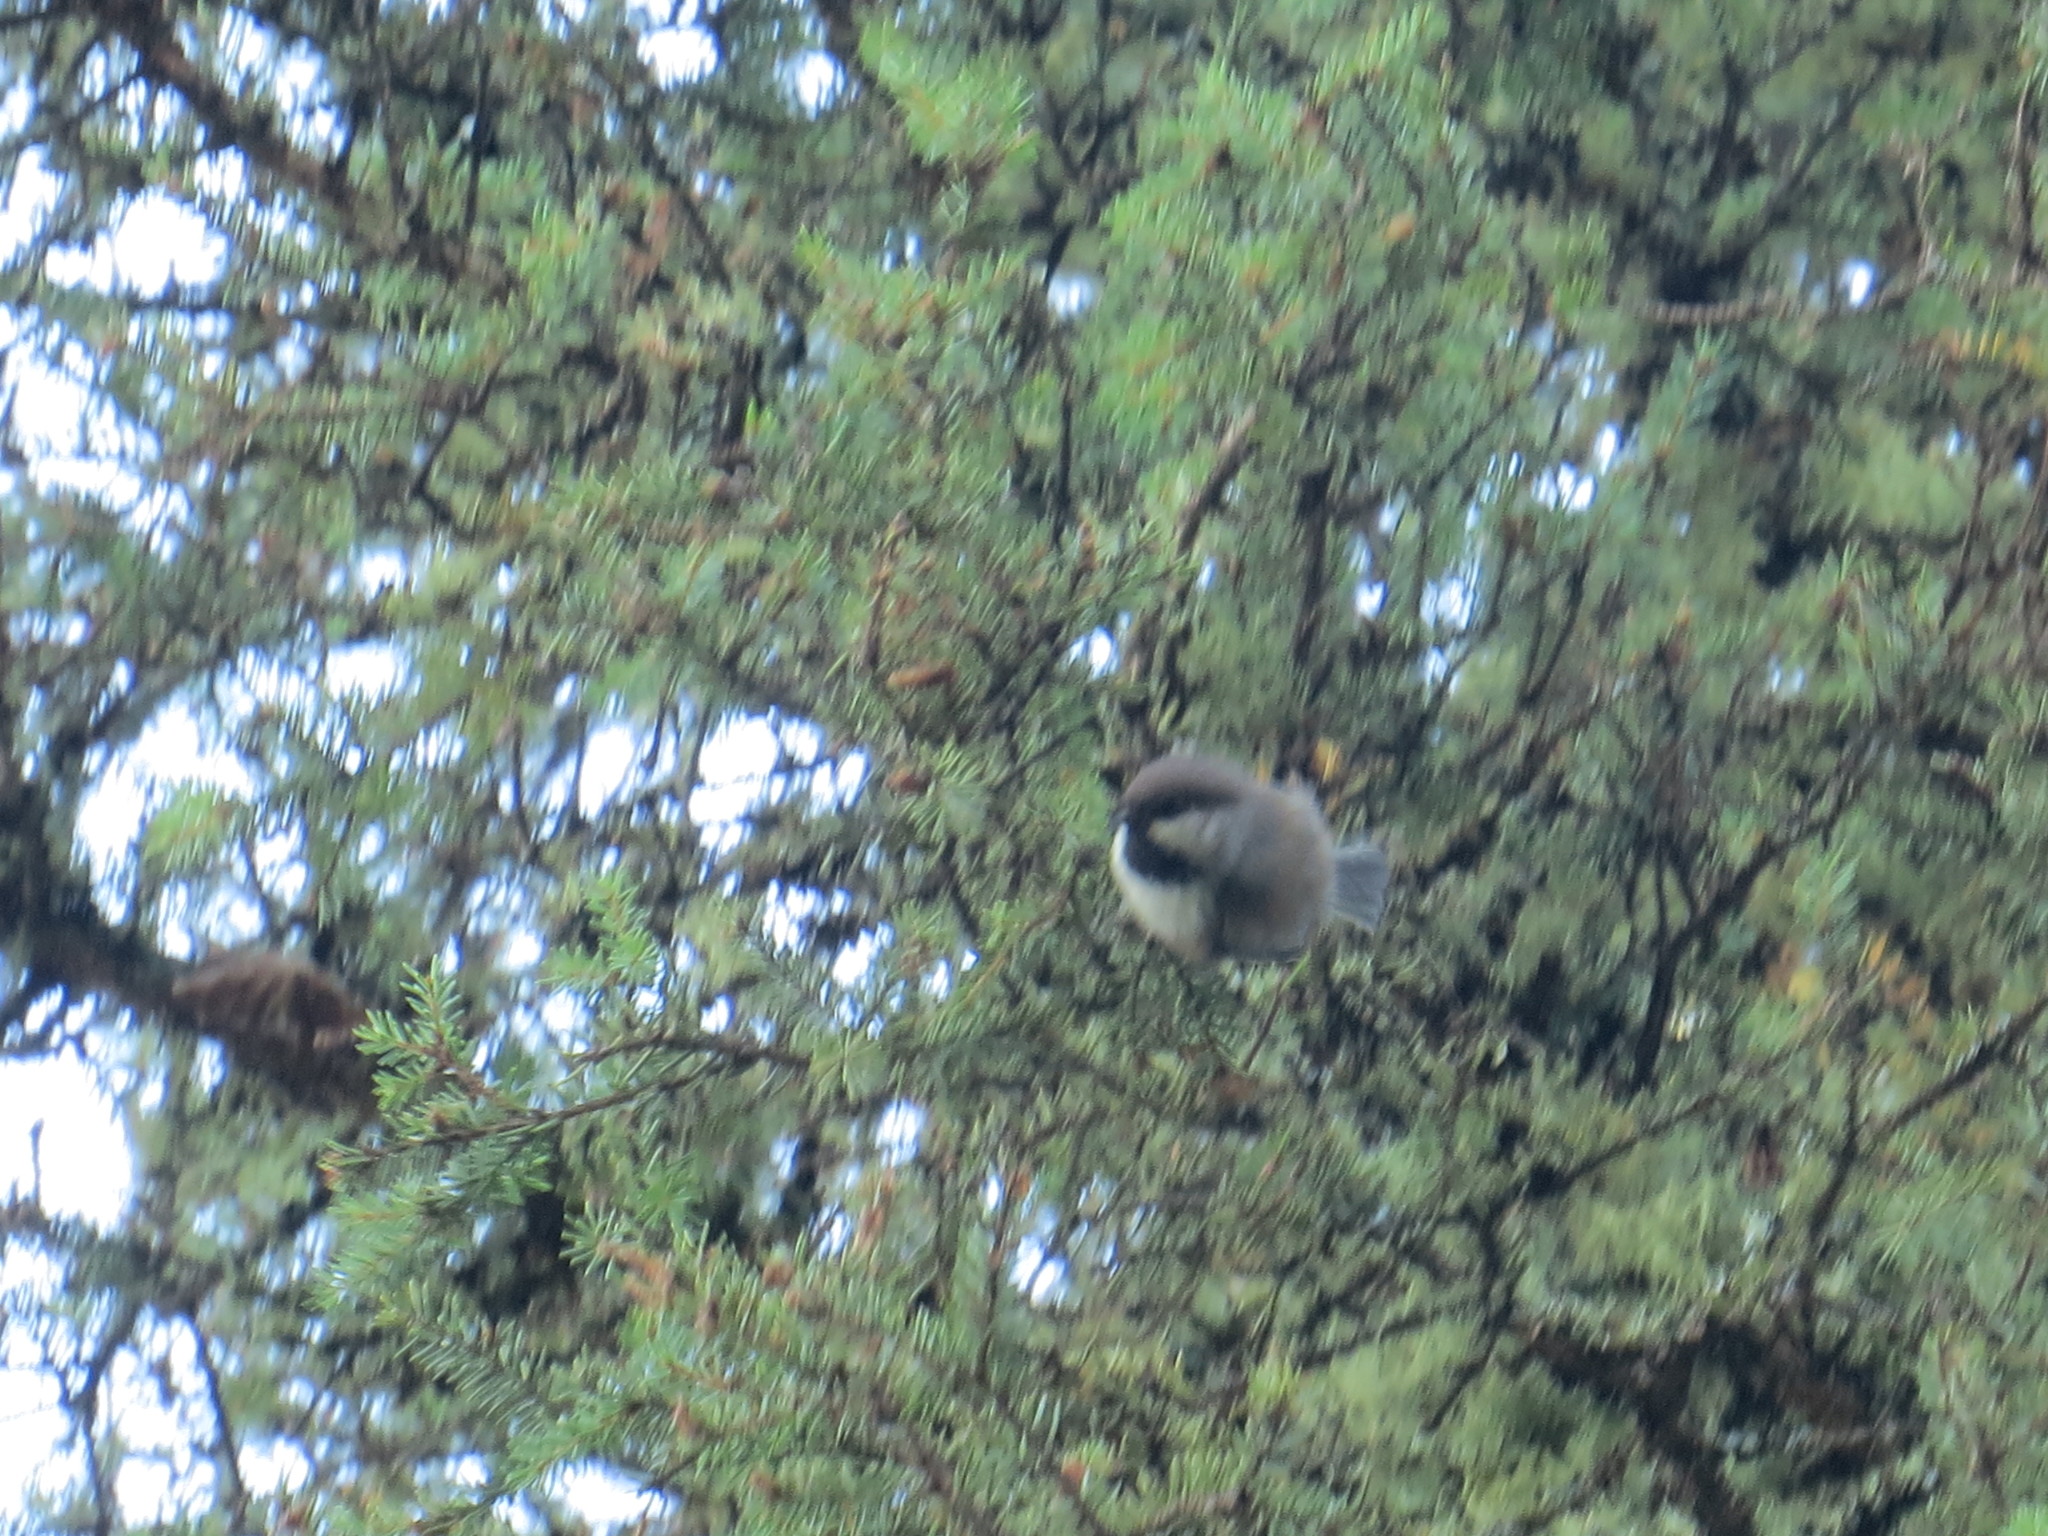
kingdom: Animalia
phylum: Chordata
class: Aves
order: Passeriformes
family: Paridae
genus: Poecile
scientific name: Poecile hudsonicus
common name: Boreal chickadee
